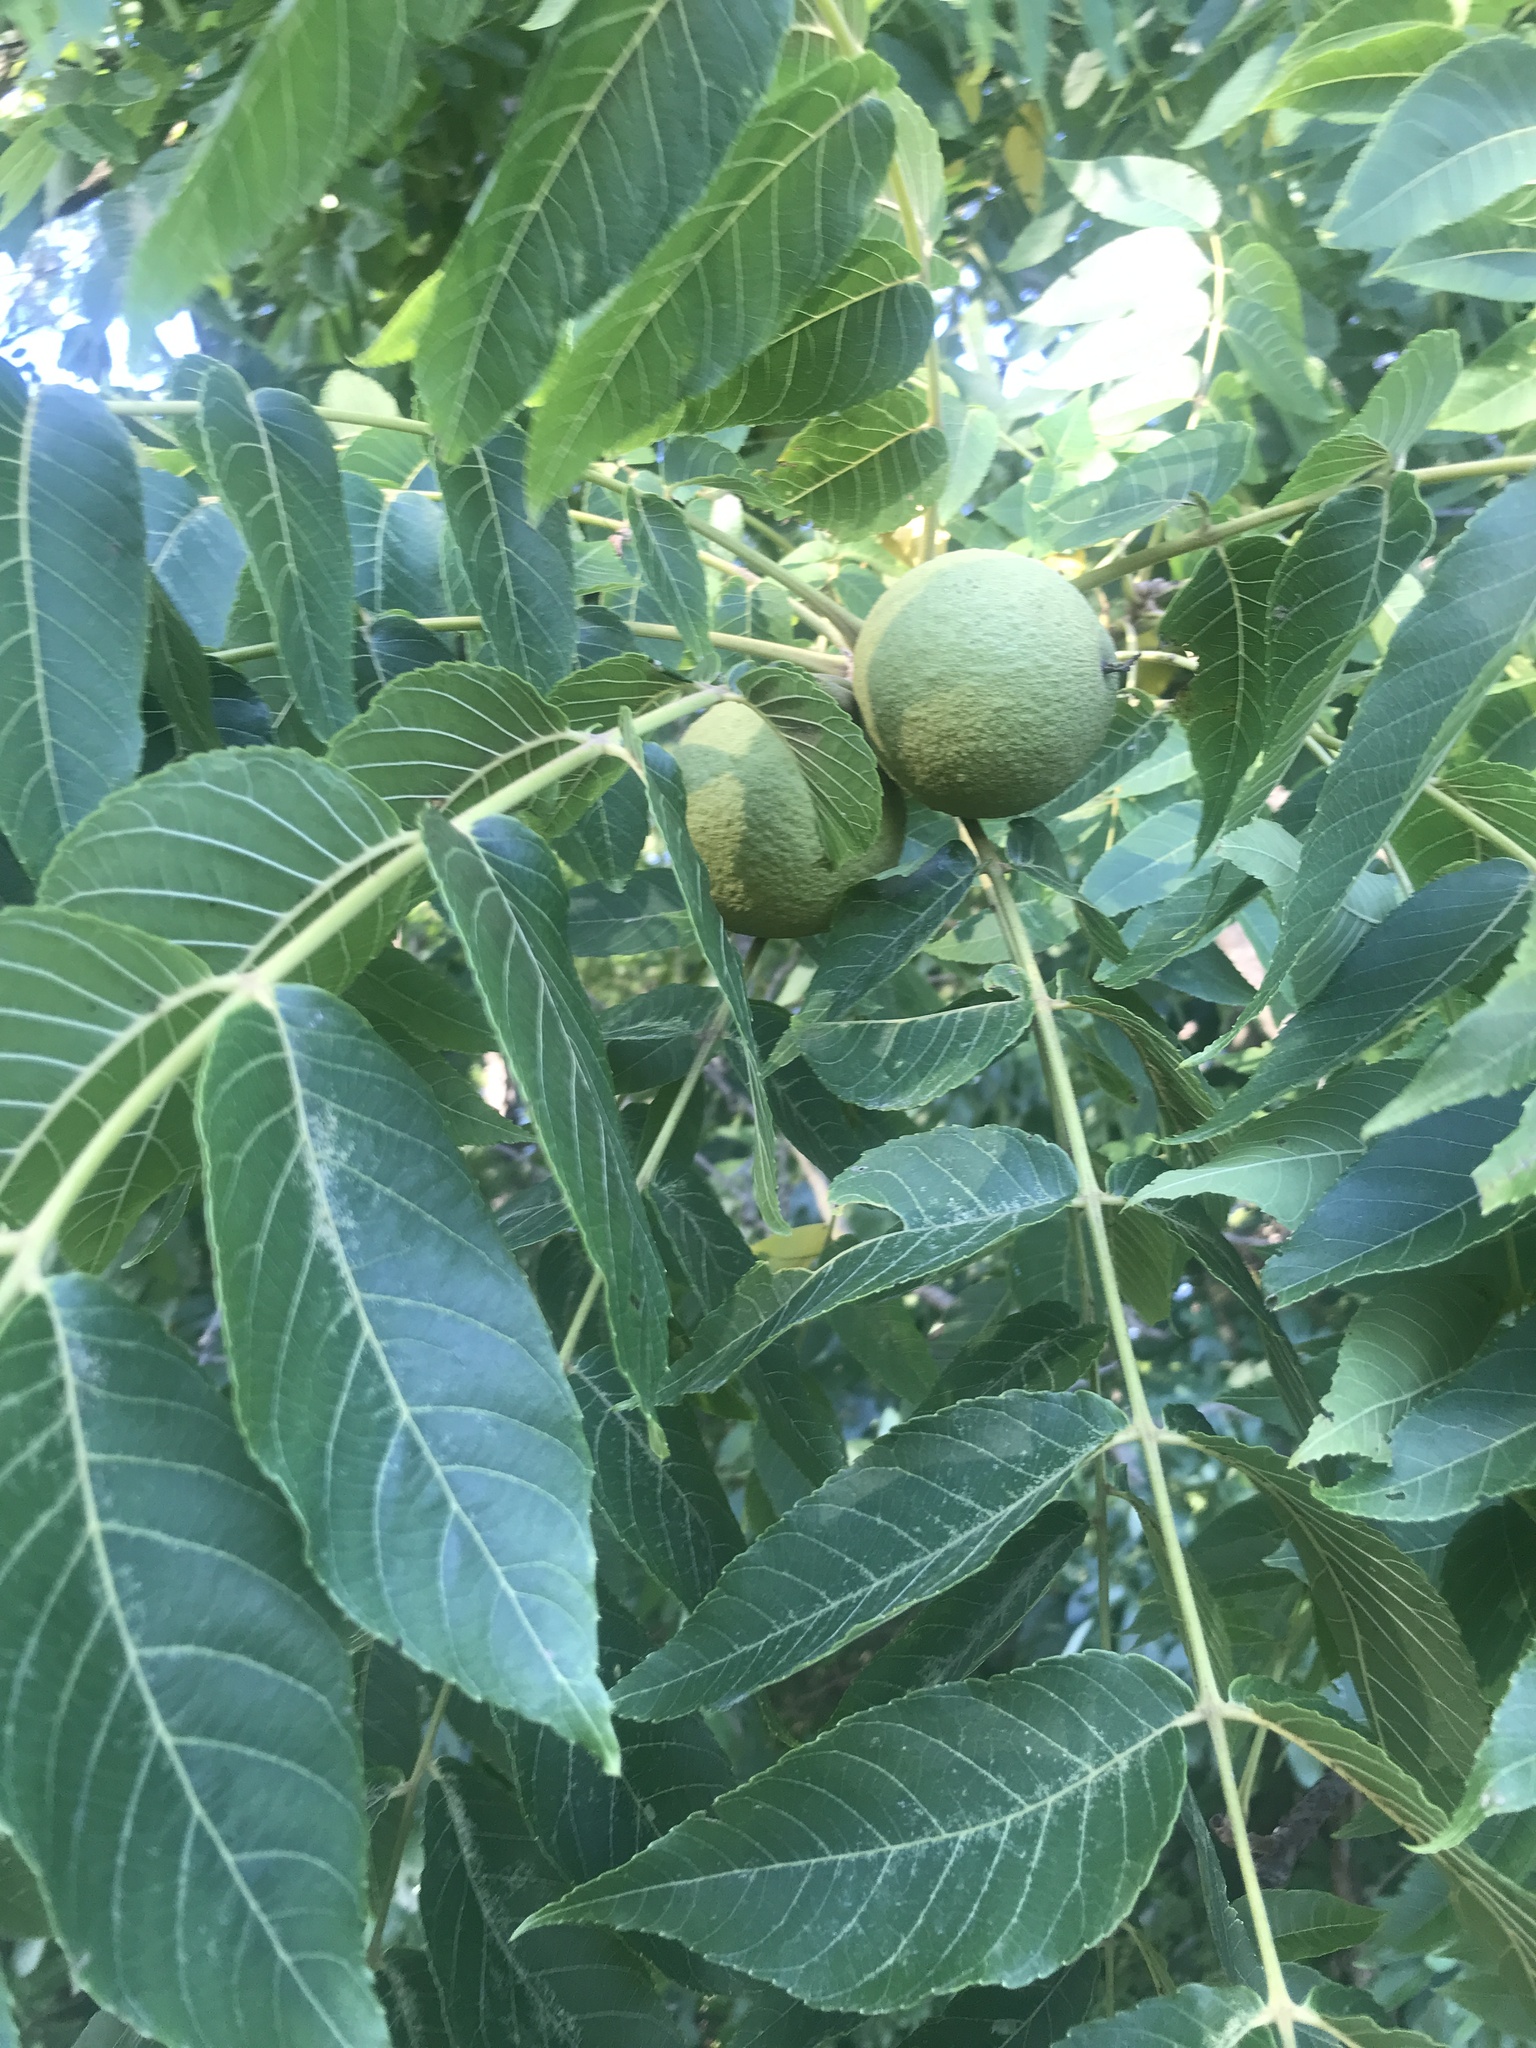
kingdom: Plantae
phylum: Tracheophyta
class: Magnoliopsida
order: Fagales
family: Juglandaceae
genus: Juglans
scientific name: Juglans nigra
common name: Black walnut
